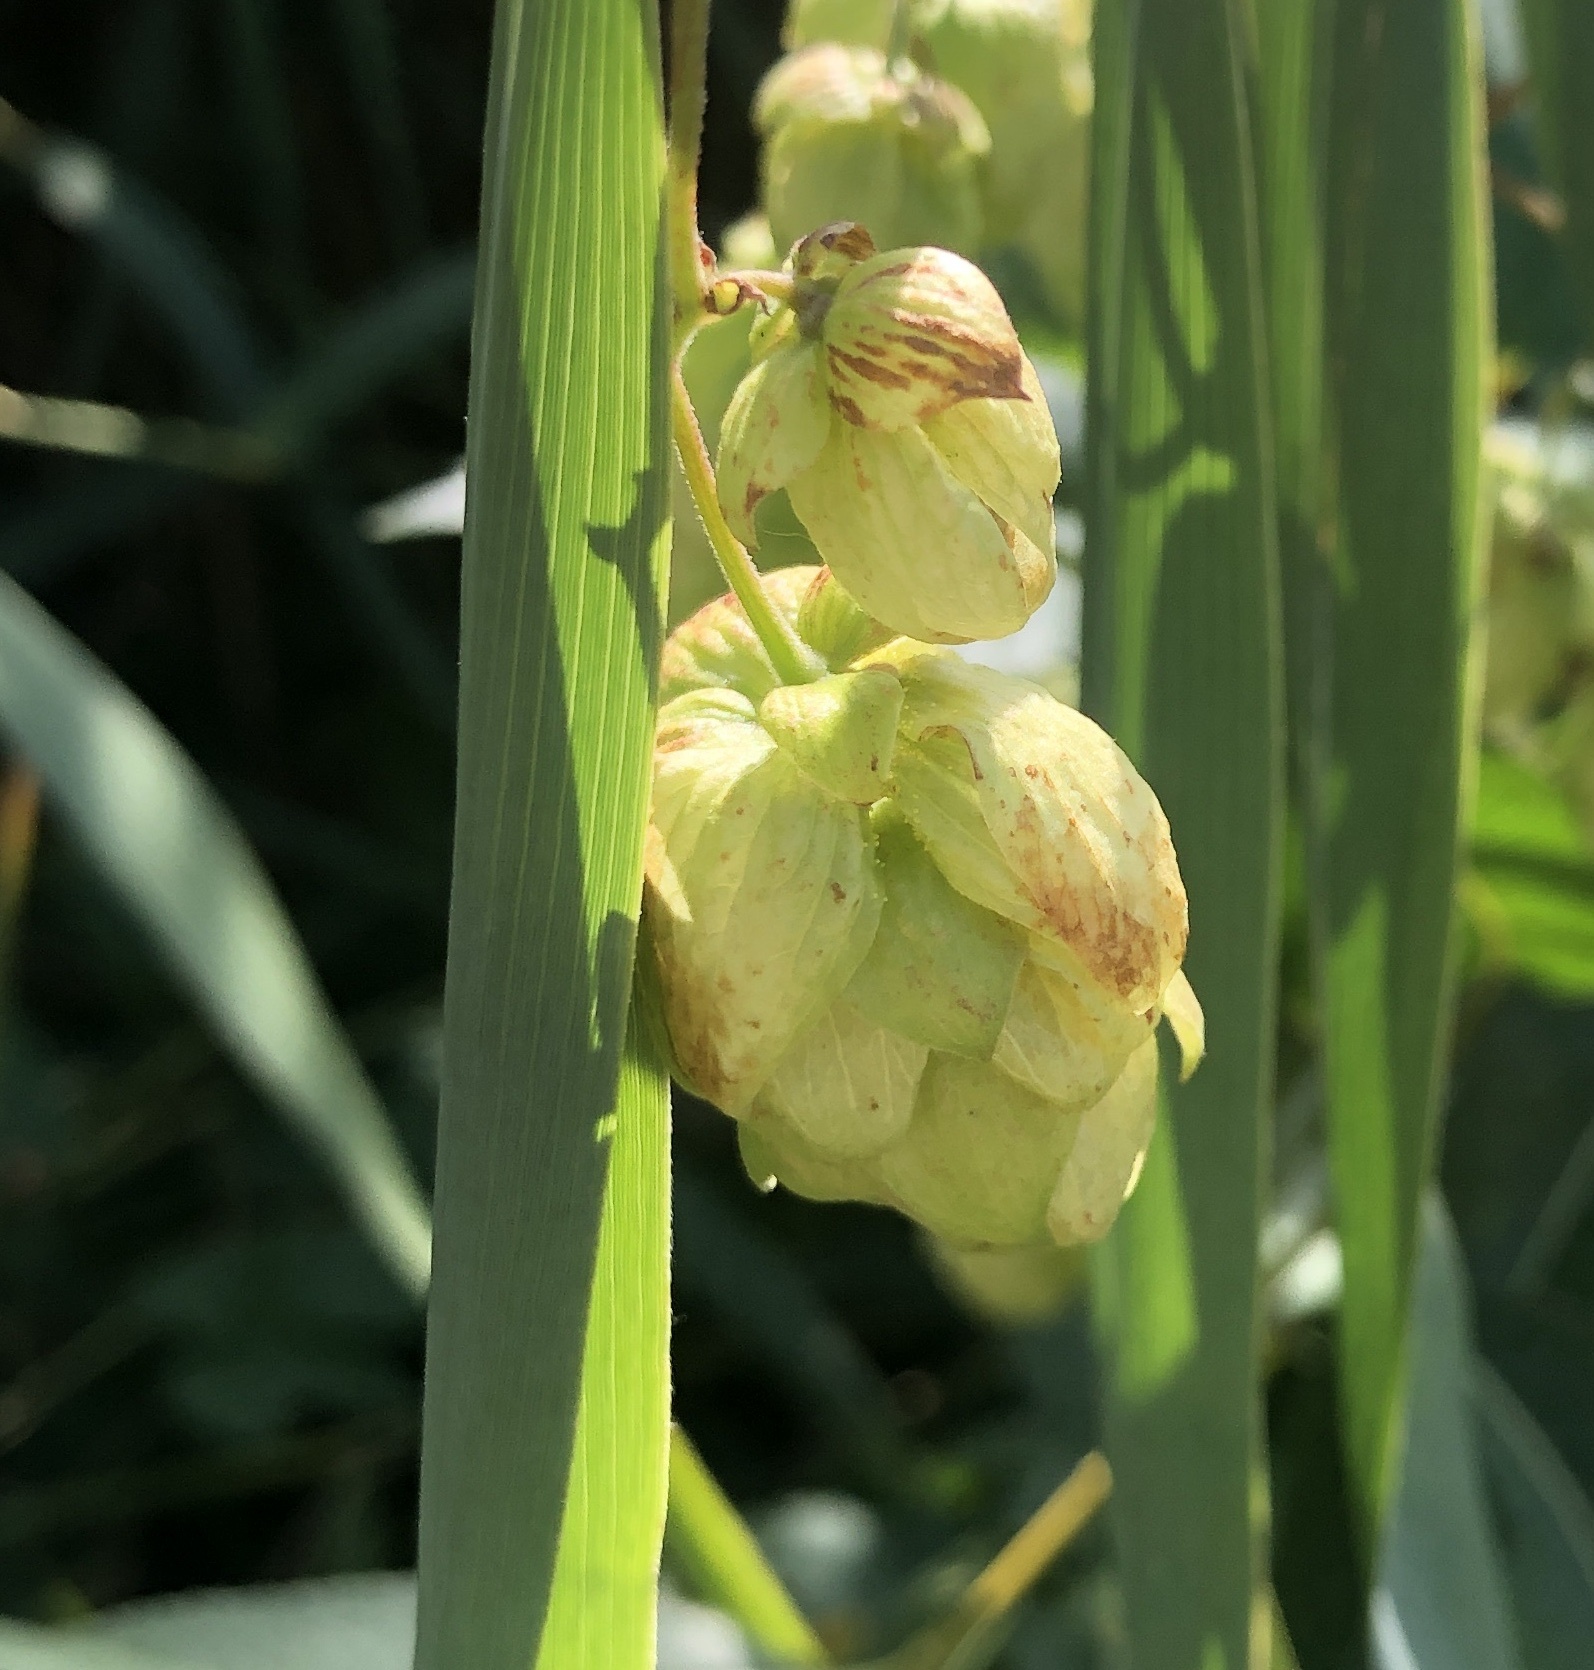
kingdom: Plantae
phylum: Tracheophyta
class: Magnoliopsida
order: Rosales
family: Cannabaceae
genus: Humulus
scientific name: Humulus lupulus
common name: Hop
